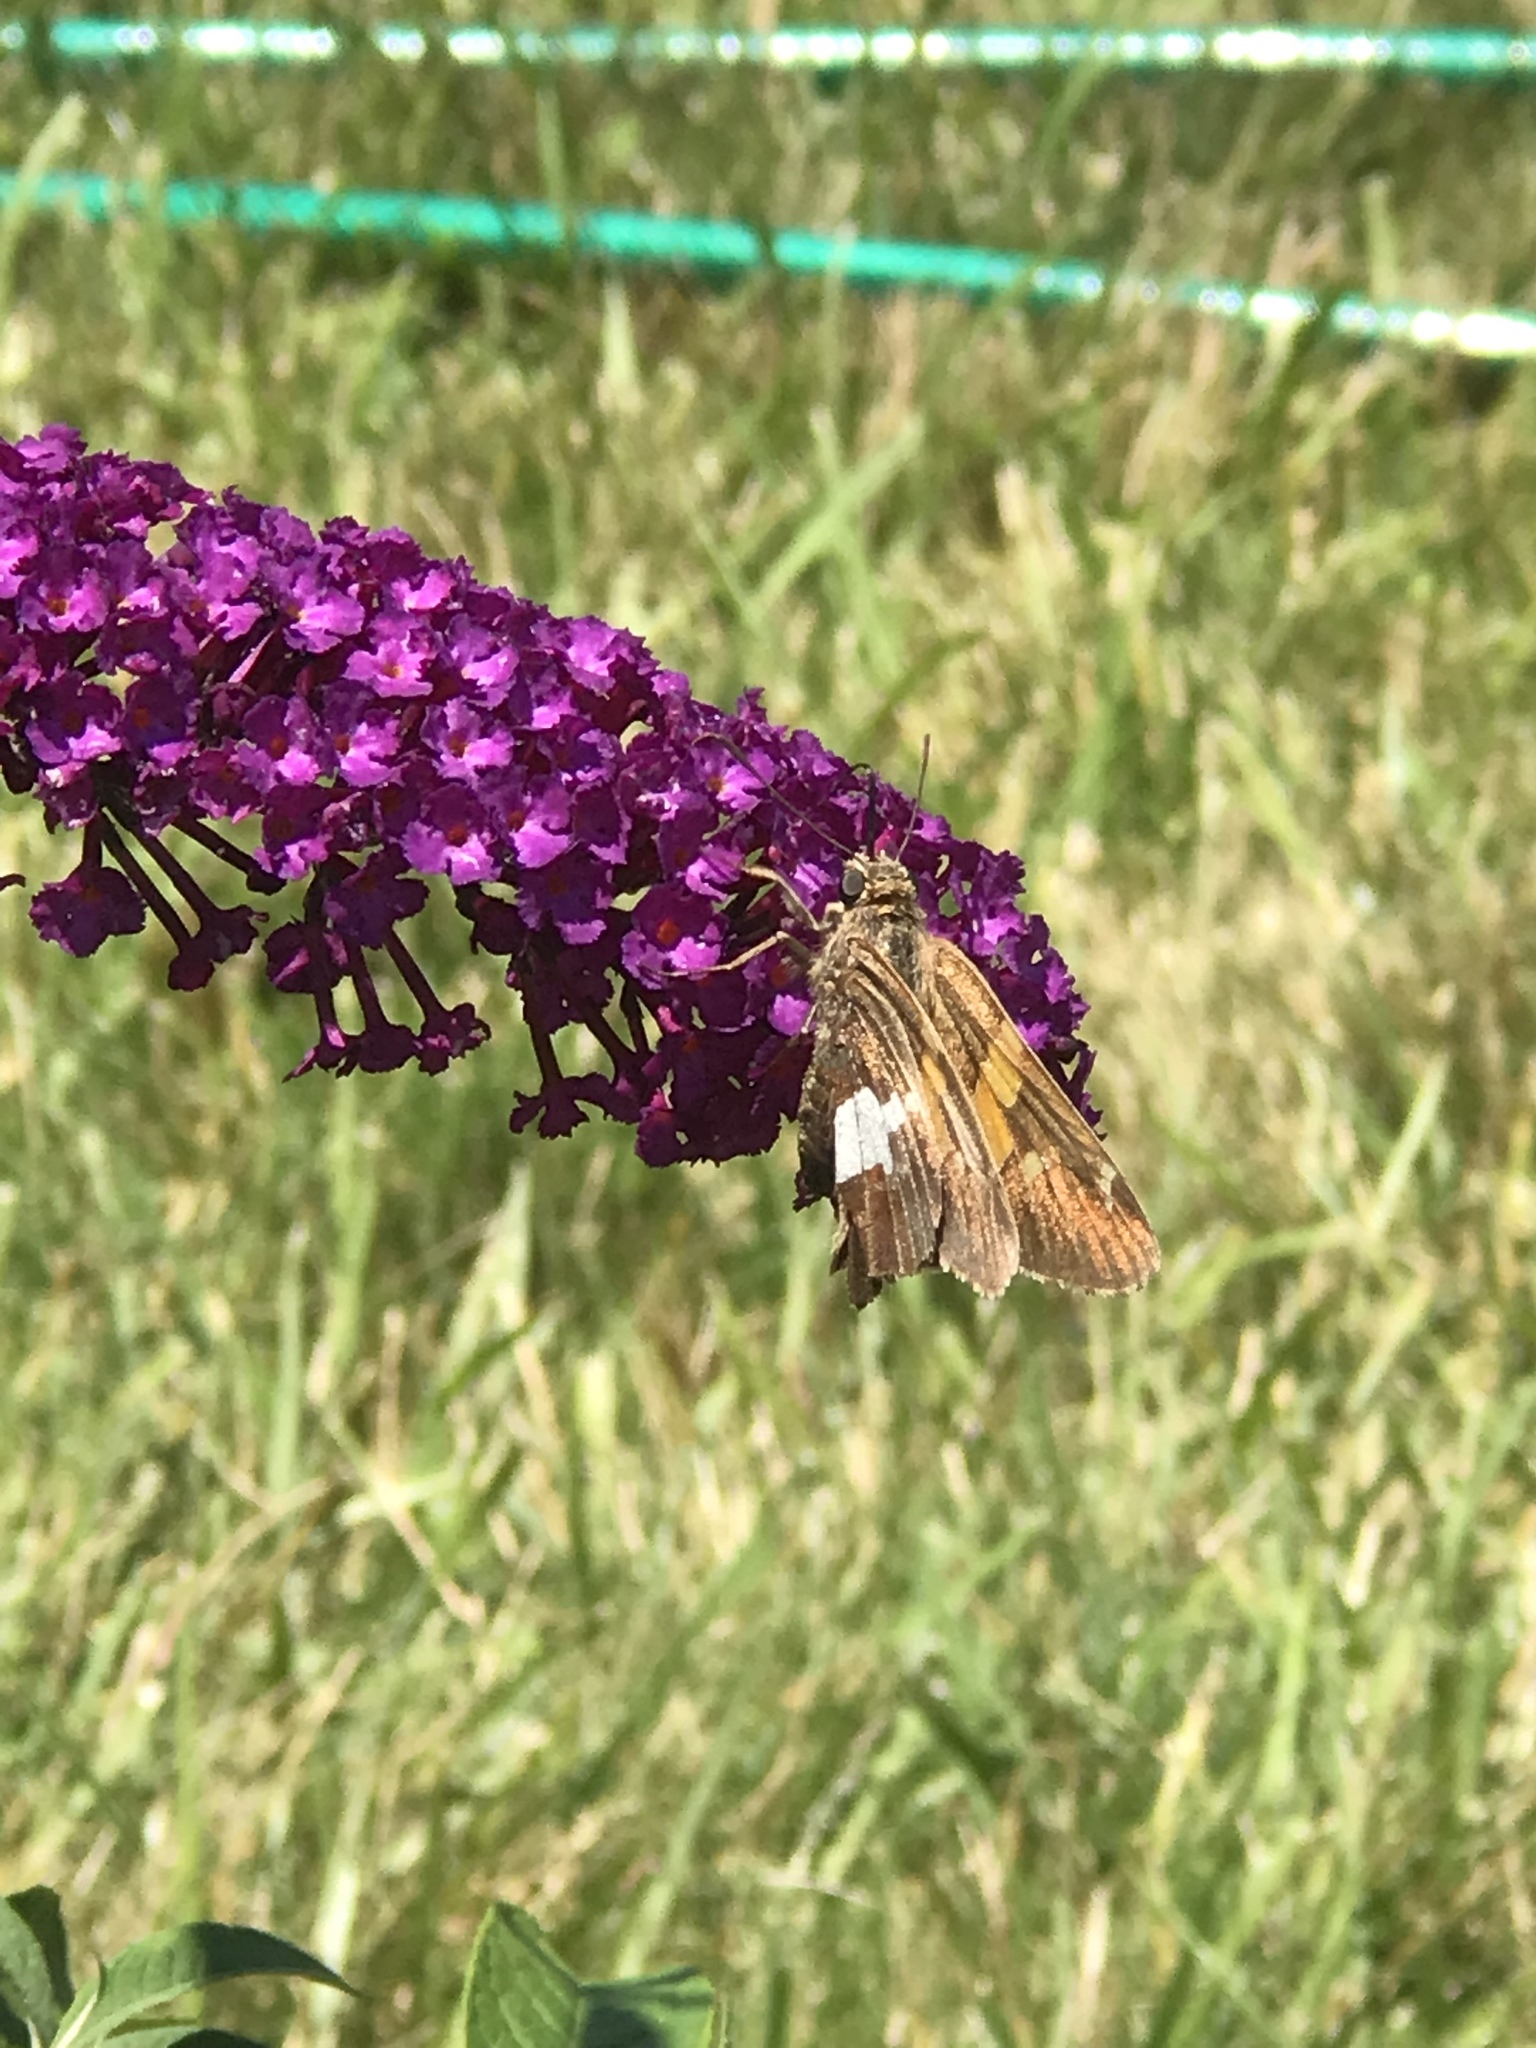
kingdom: Animalia
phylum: Arthropoda
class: Insecta
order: Lepidoptera
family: Hesperiidae
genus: Epargyreus
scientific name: Epargyreus clarus
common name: Silver-spotted skipper
